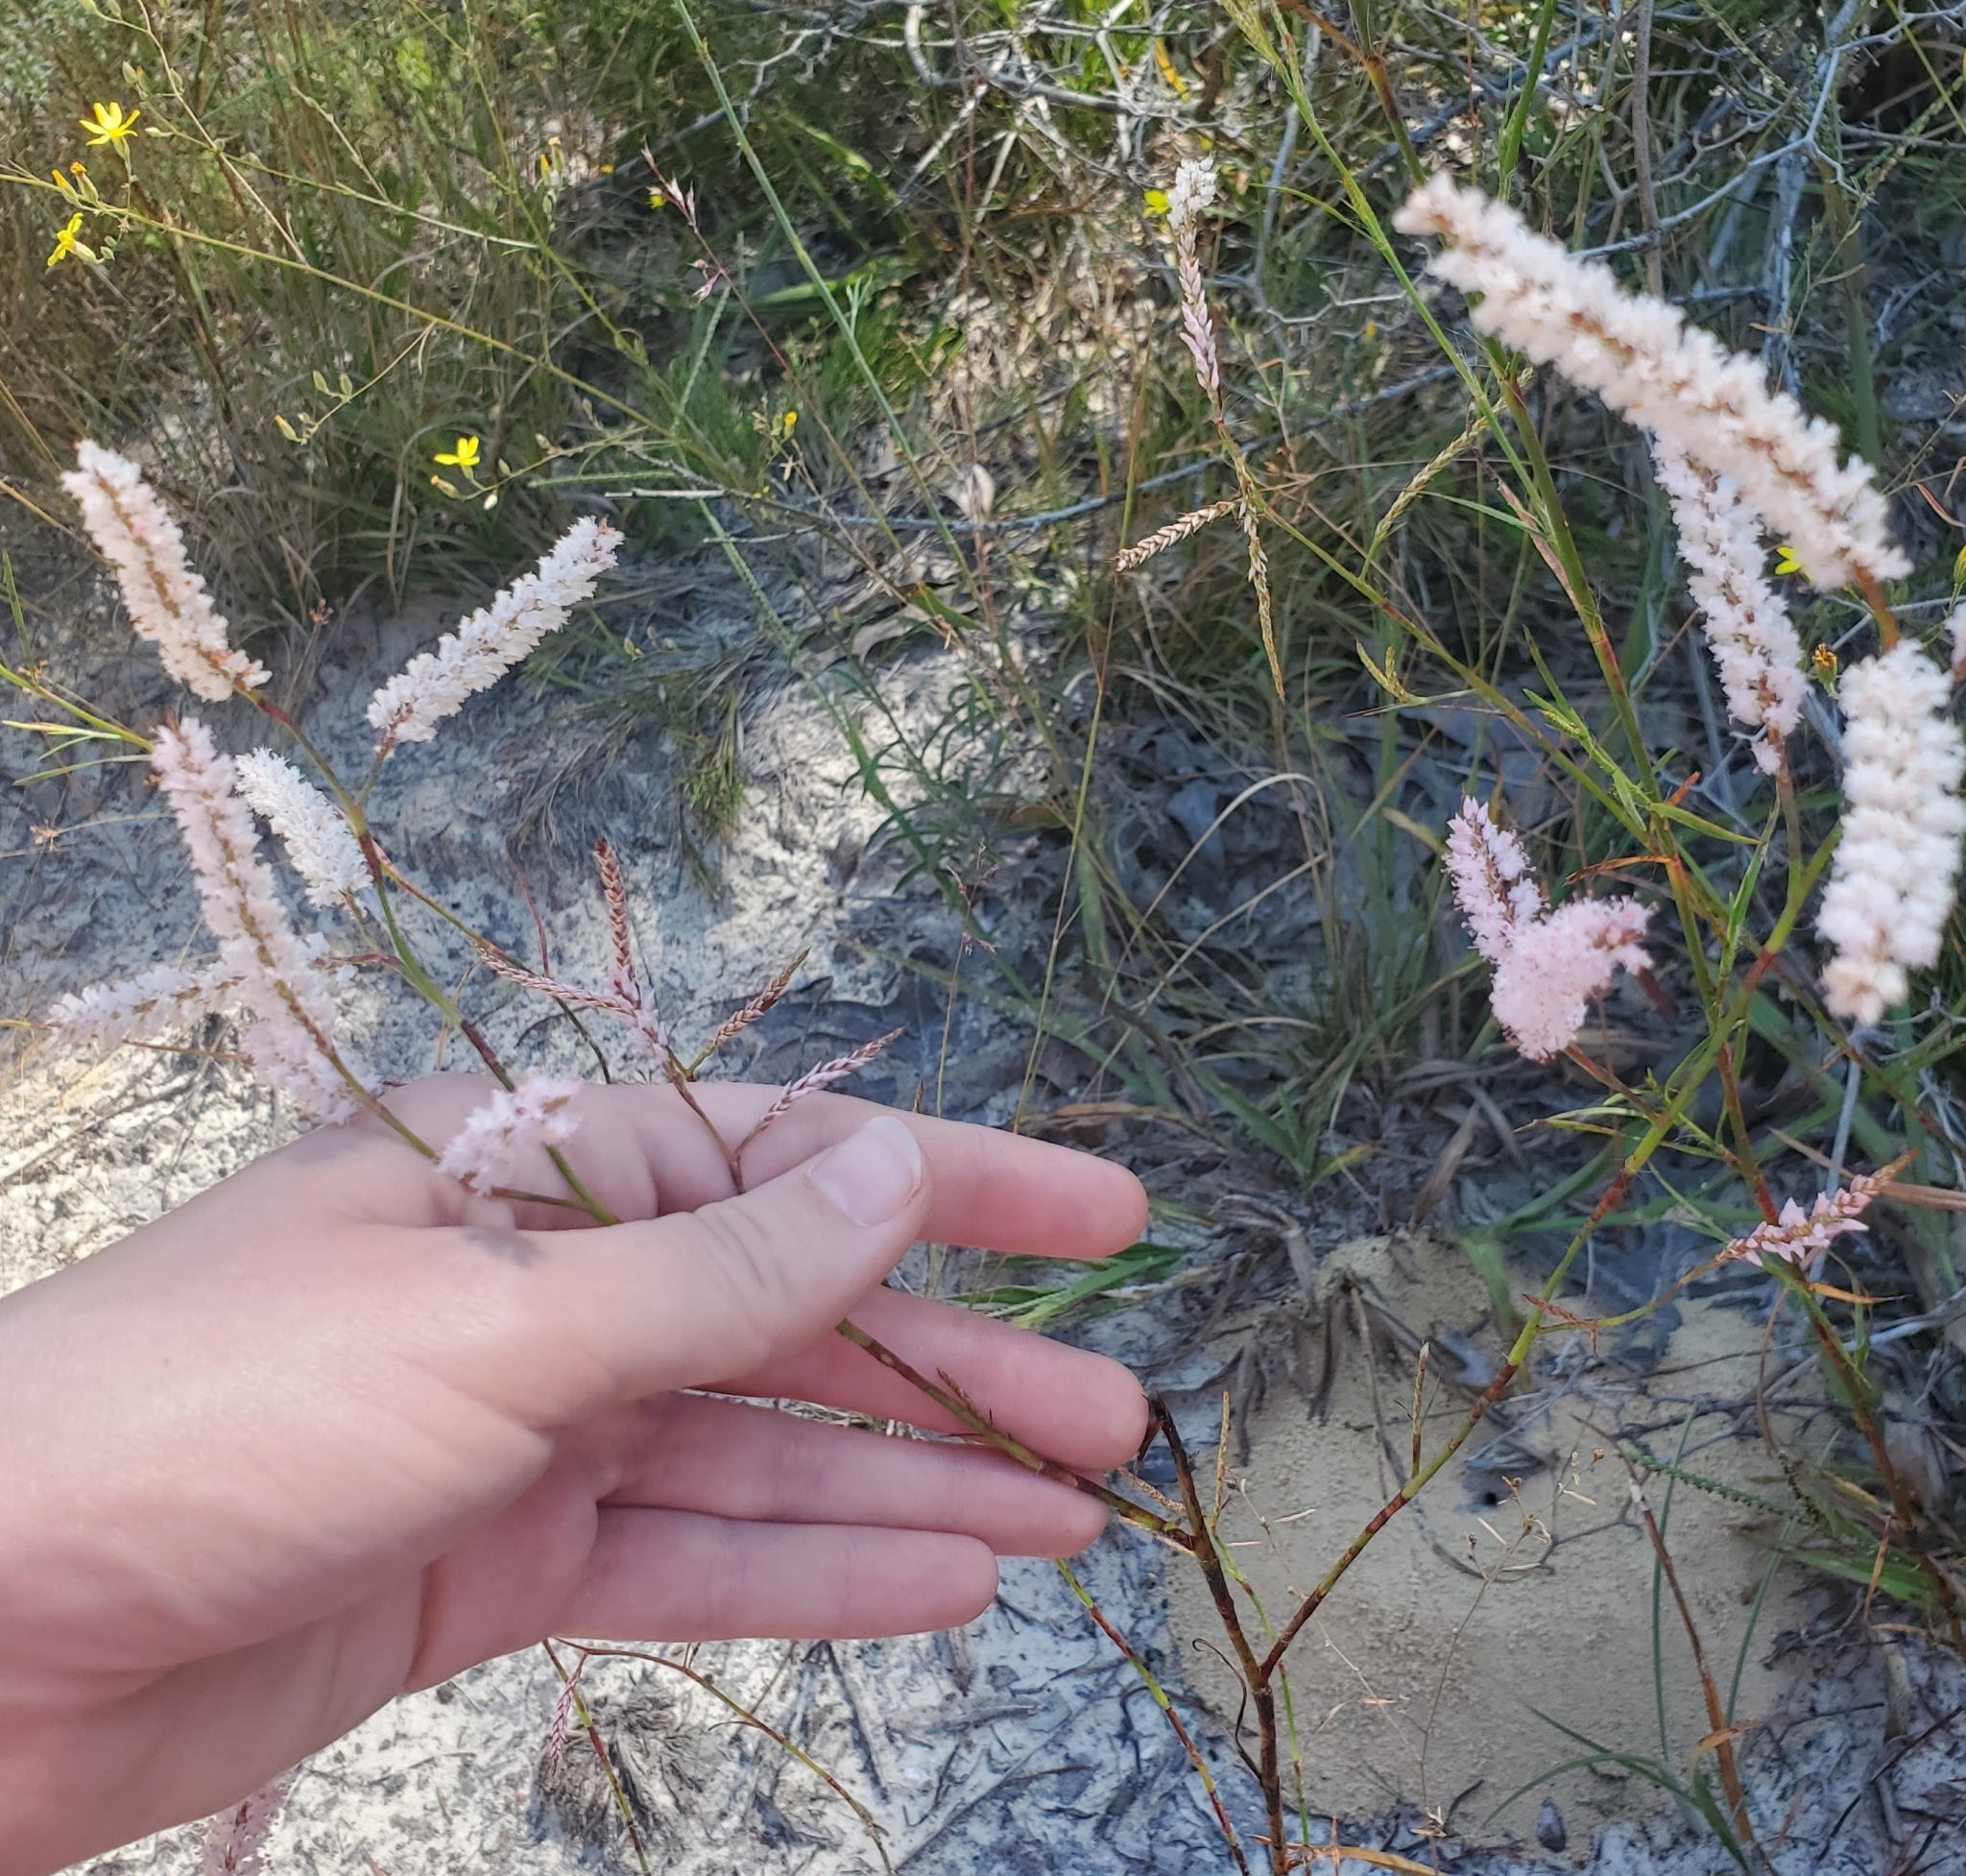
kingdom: Plantae
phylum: Tracheophyta
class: Magnoliopsida
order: Caryophyllales
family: Polygonaceae
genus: Polygonella
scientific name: Polygonella robusta
